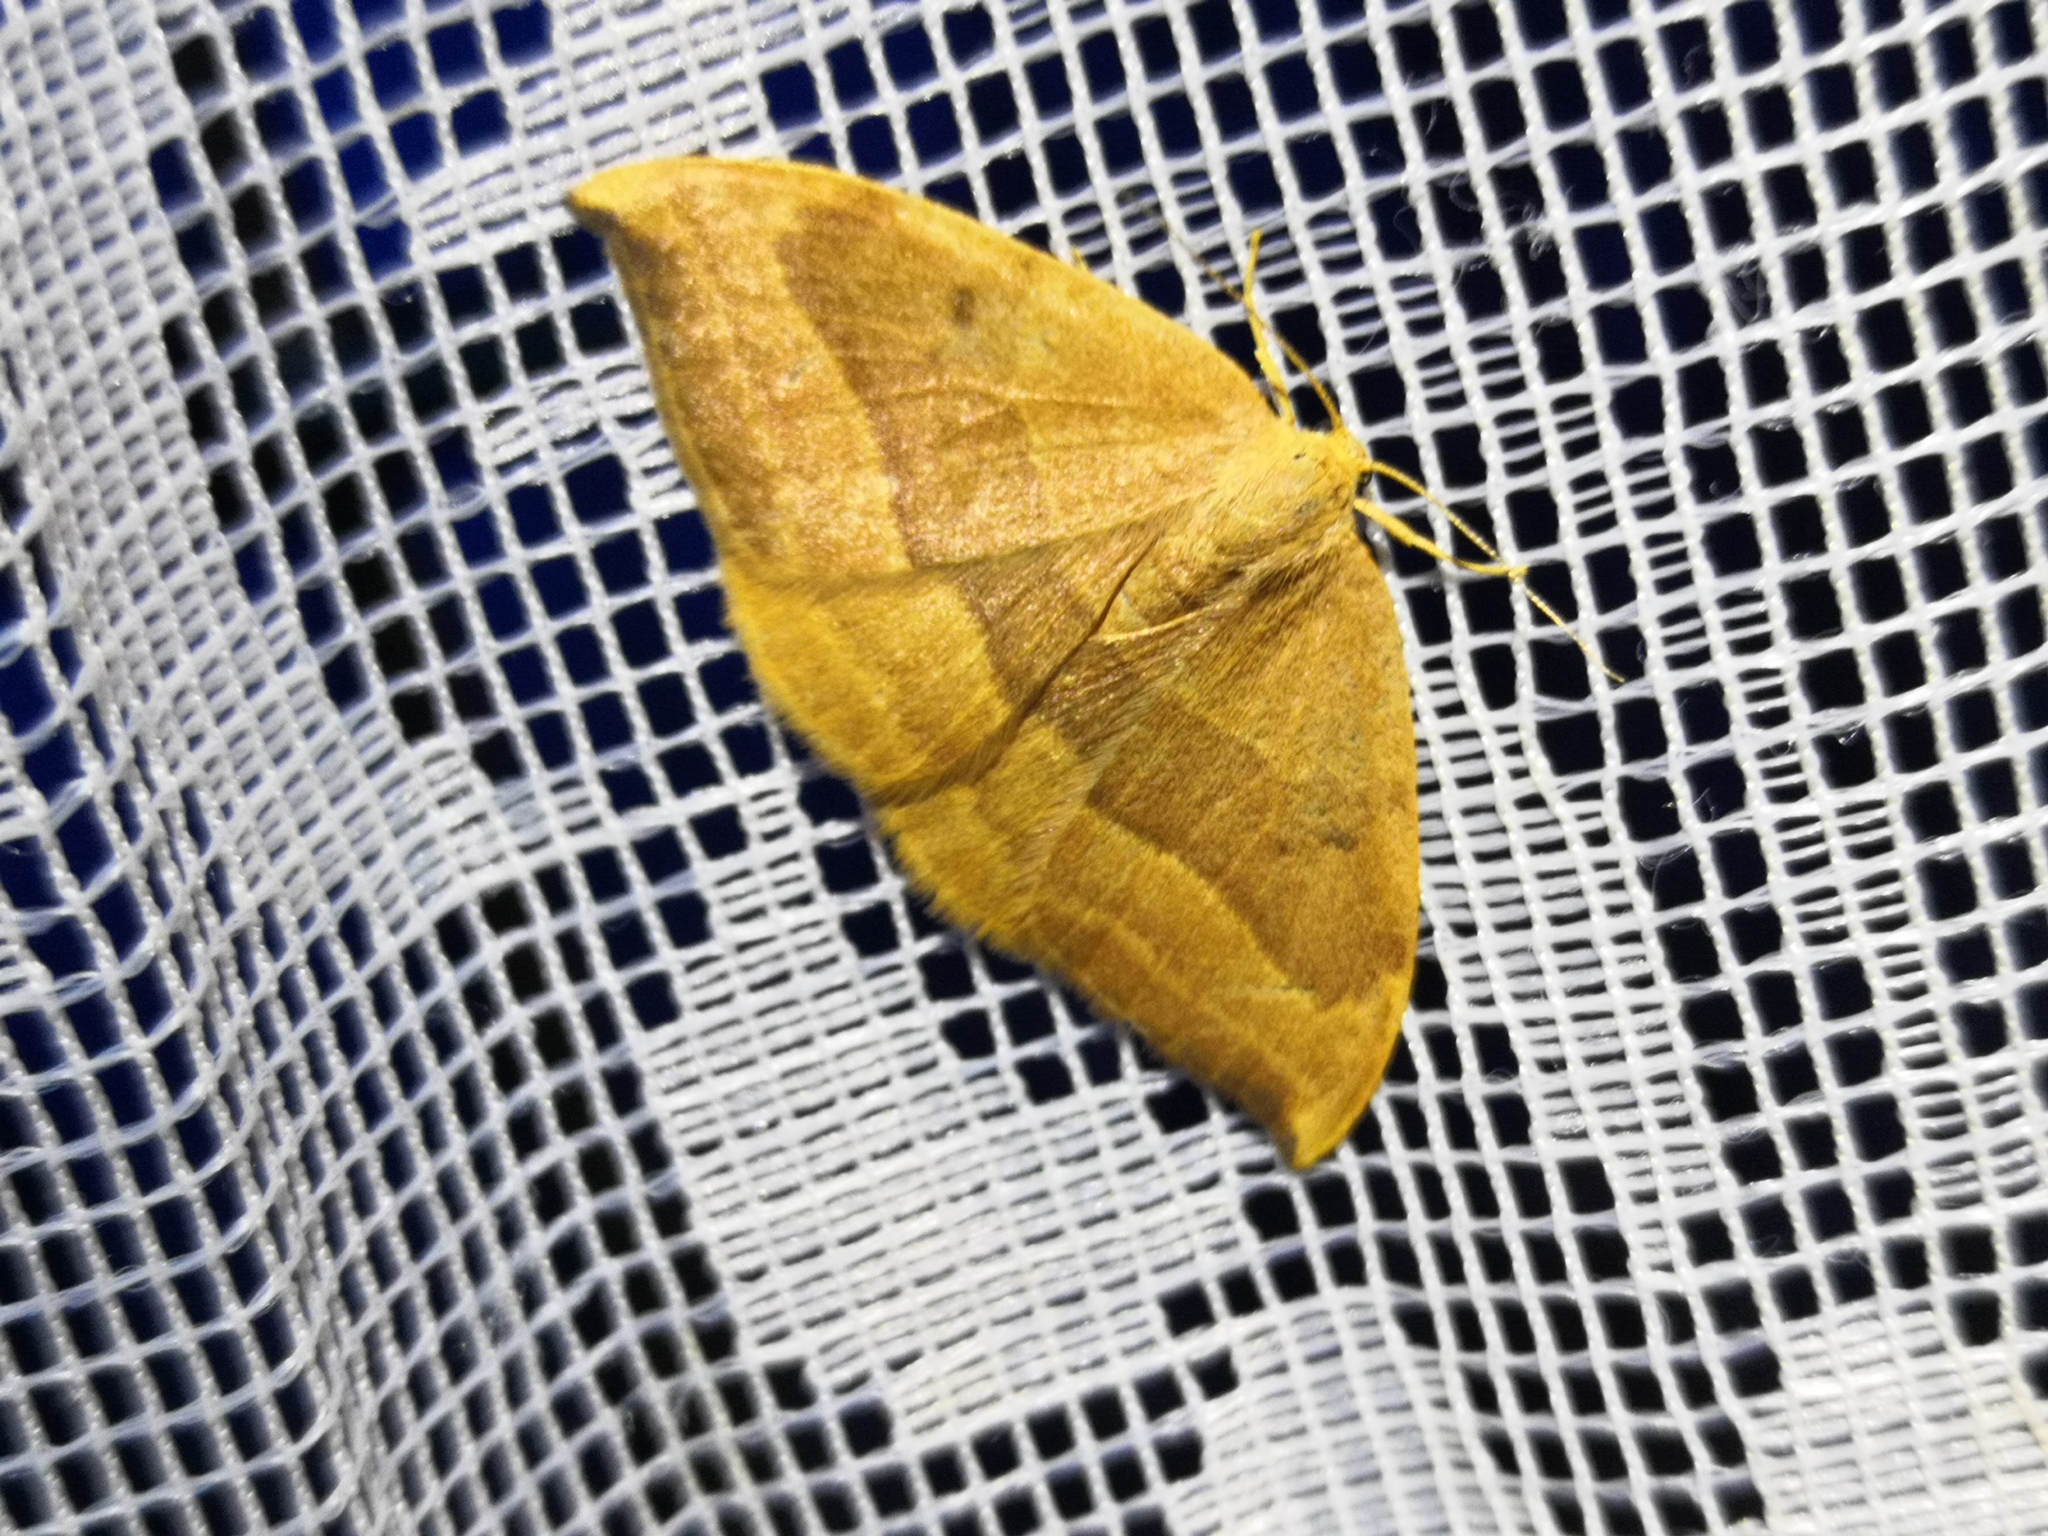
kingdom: Animalia
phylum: Arthropoda
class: Insecta
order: Lepidoptera
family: Drepanidae
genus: Watsonalla
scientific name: Watsonalla cultraria
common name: Barred hook-tip
